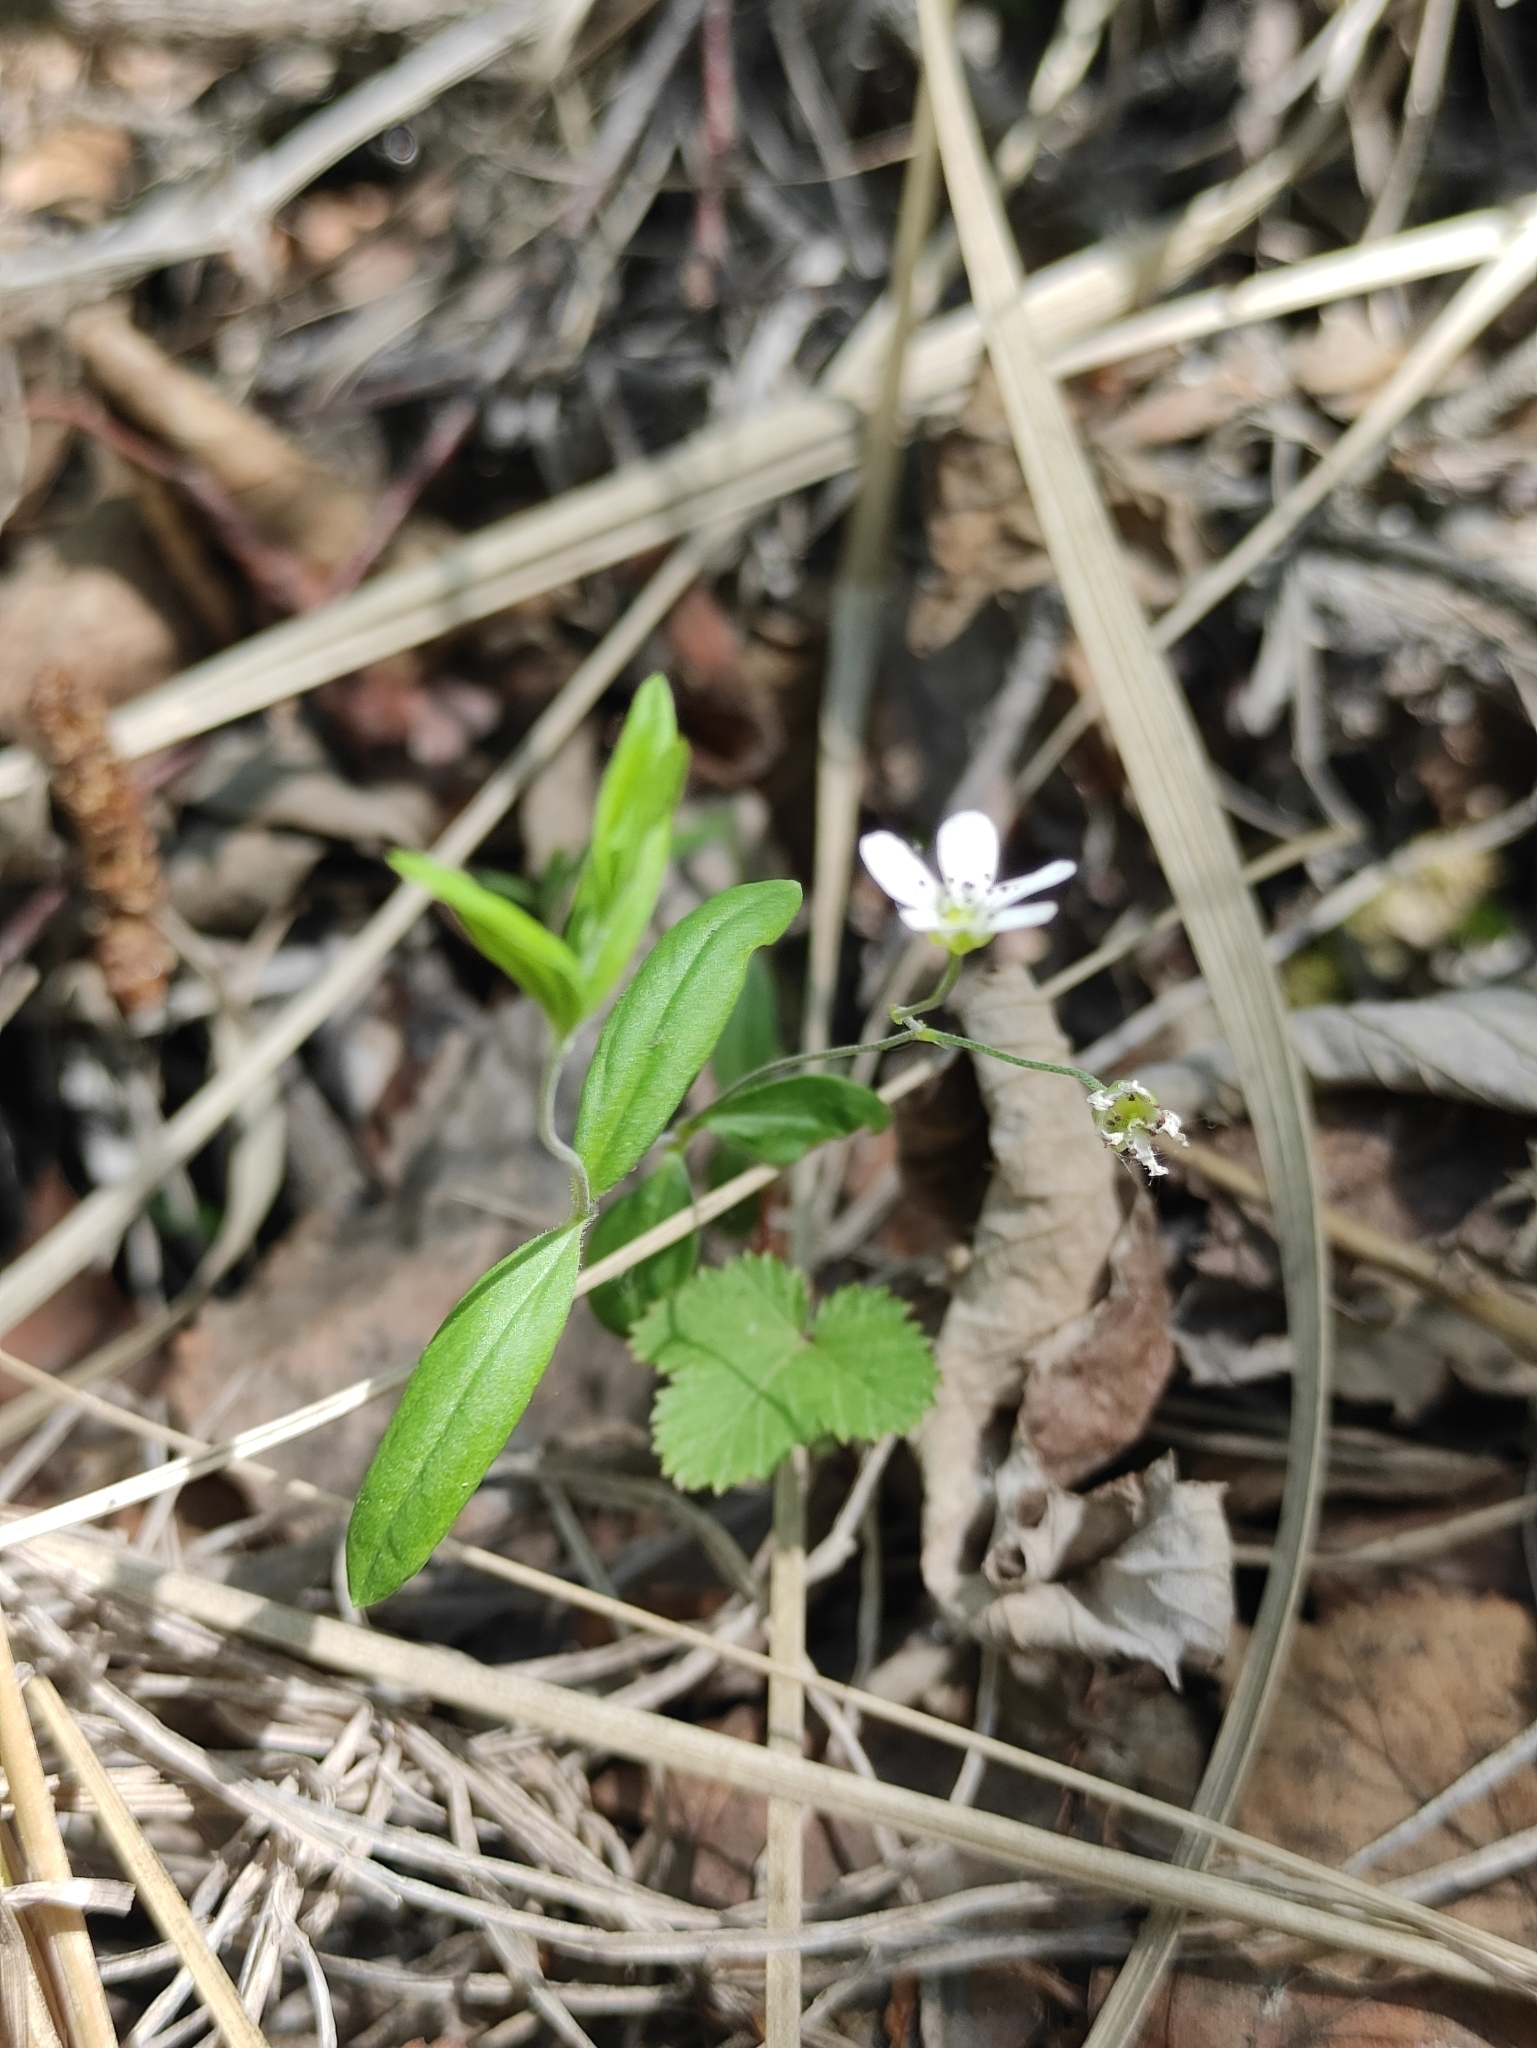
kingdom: Plantae
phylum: Tracheophyta
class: Magnoliopsida
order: Caryophyllales
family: Caryophyllaceae
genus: Moehringia
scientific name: Moehringia lateriflora
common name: Blunt-leaved sandwort
